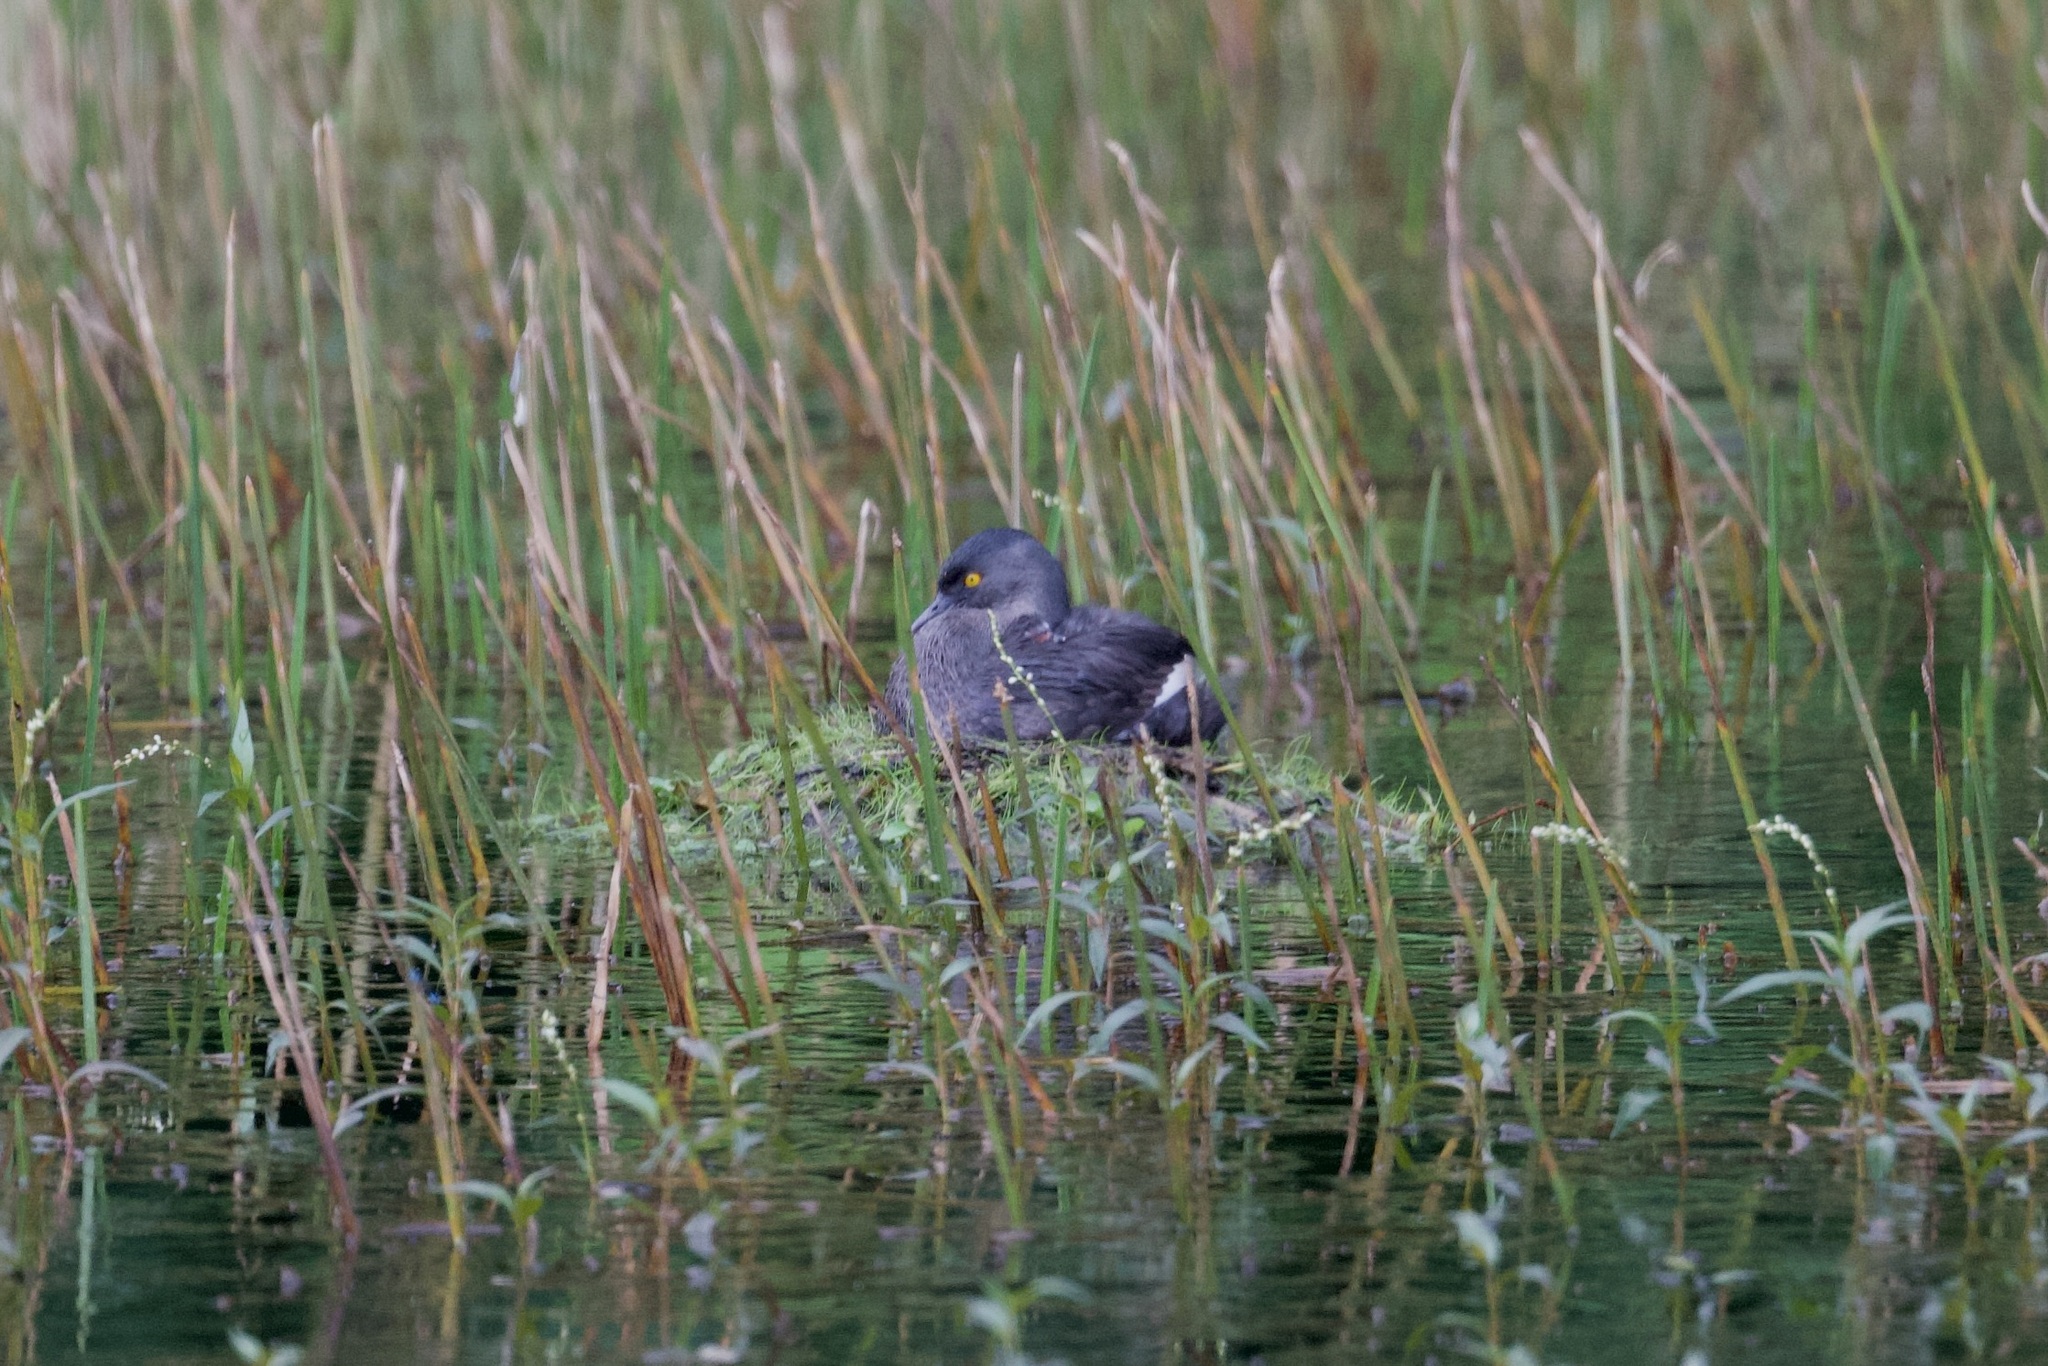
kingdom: Animalia
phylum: Chordata
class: Aves
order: Podicipediformes
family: Podicipedidae
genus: Tachybaptus
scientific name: Tachybaptus dominicus
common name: Least grebe
